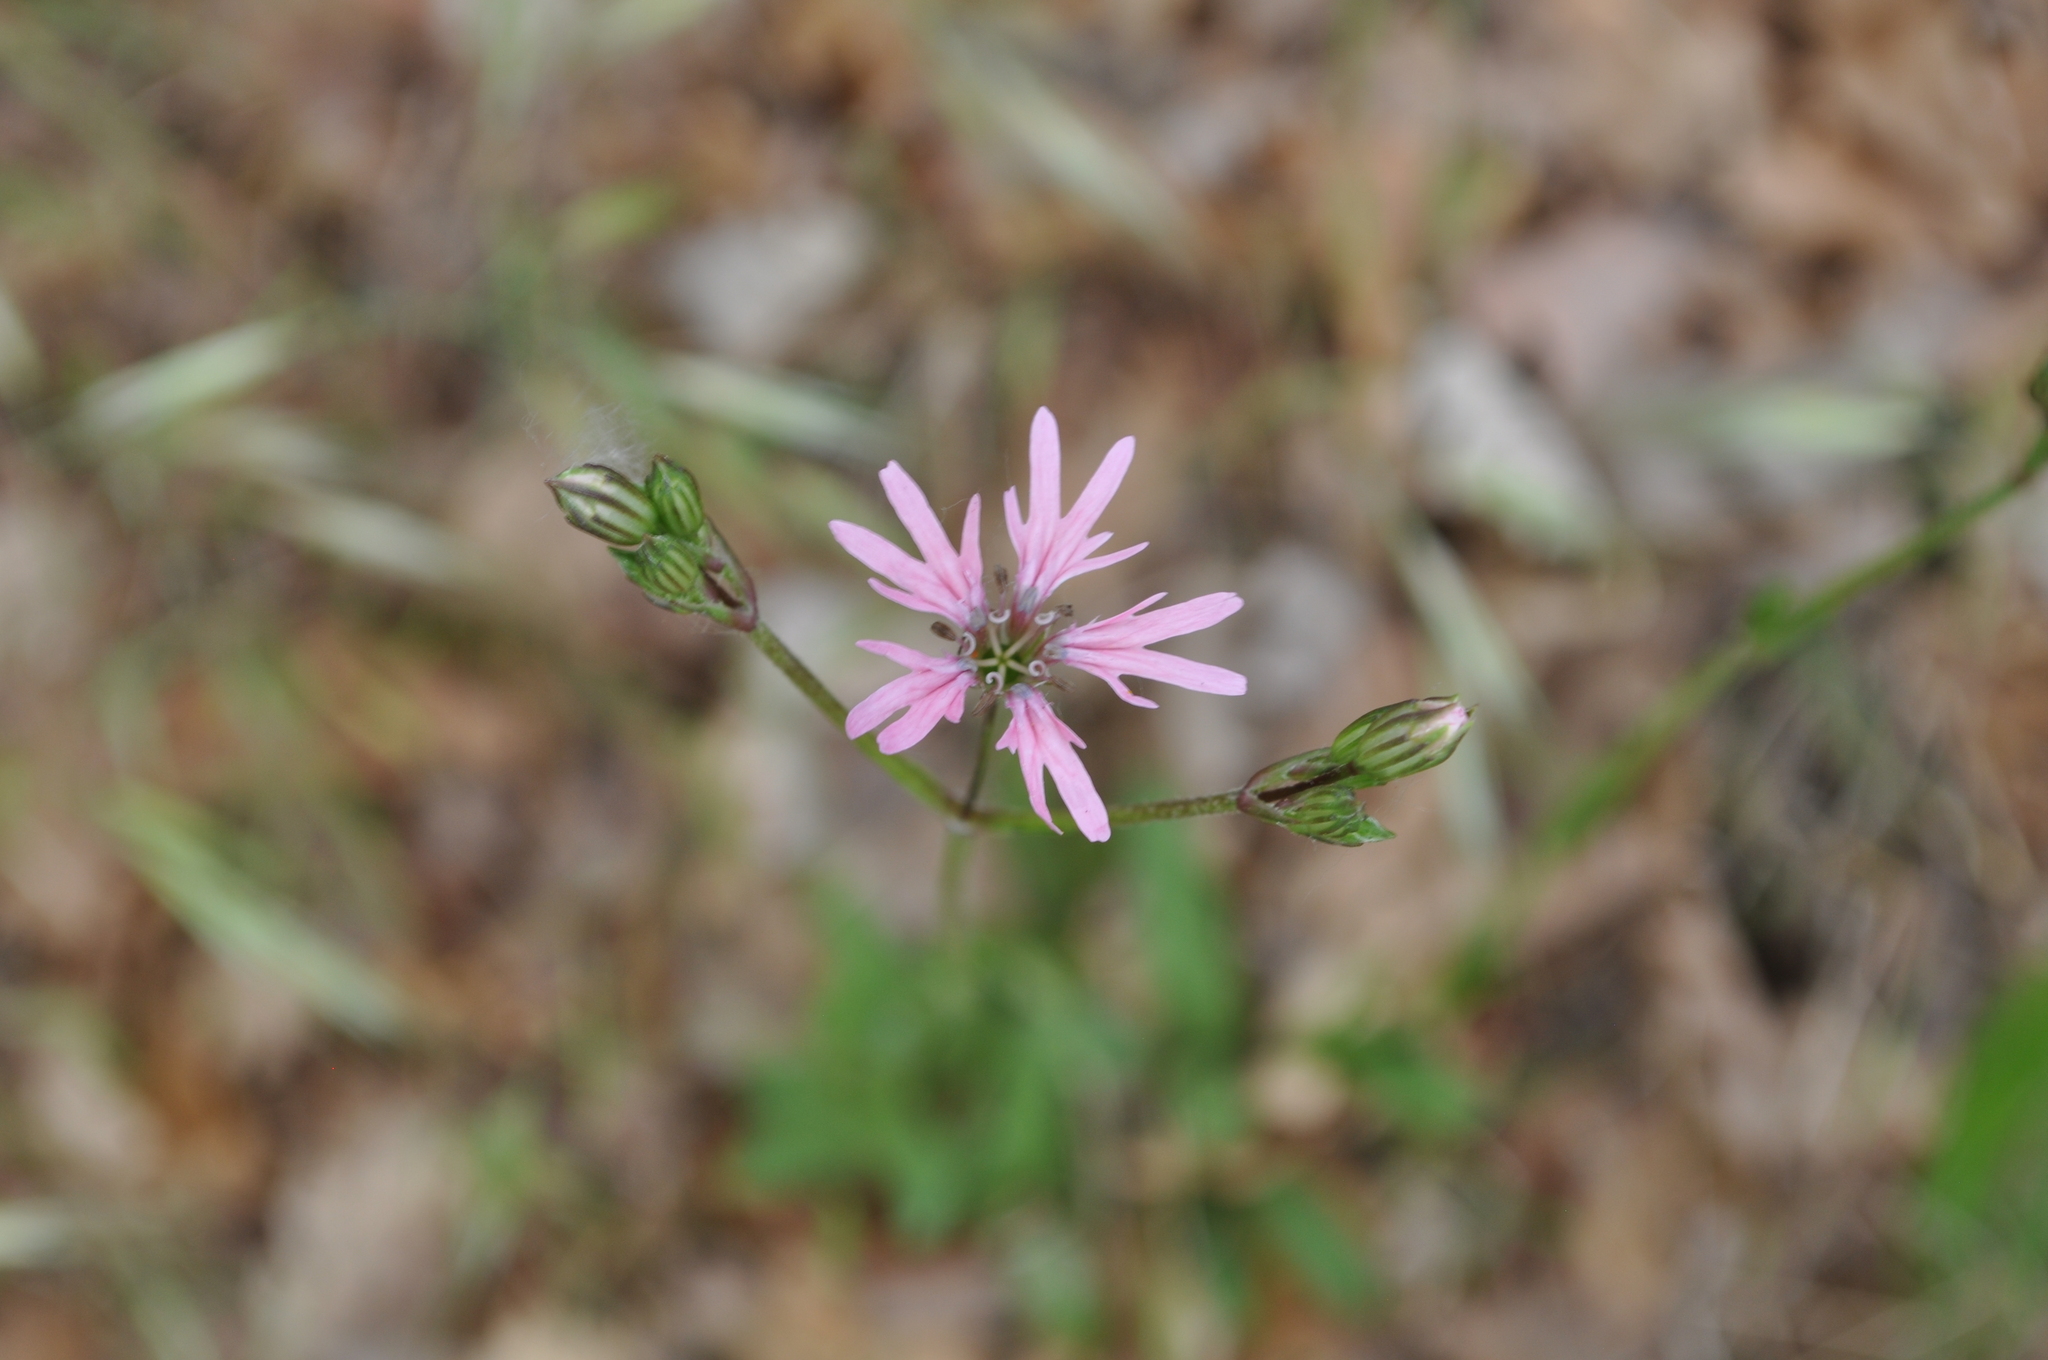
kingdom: Plantae
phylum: Tracheophyta
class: Magnoliopsida
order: Caryophyllales
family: Caryophyllaceae
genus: Silene
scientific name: Silene flos-cuculi
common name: Ragged-robin
